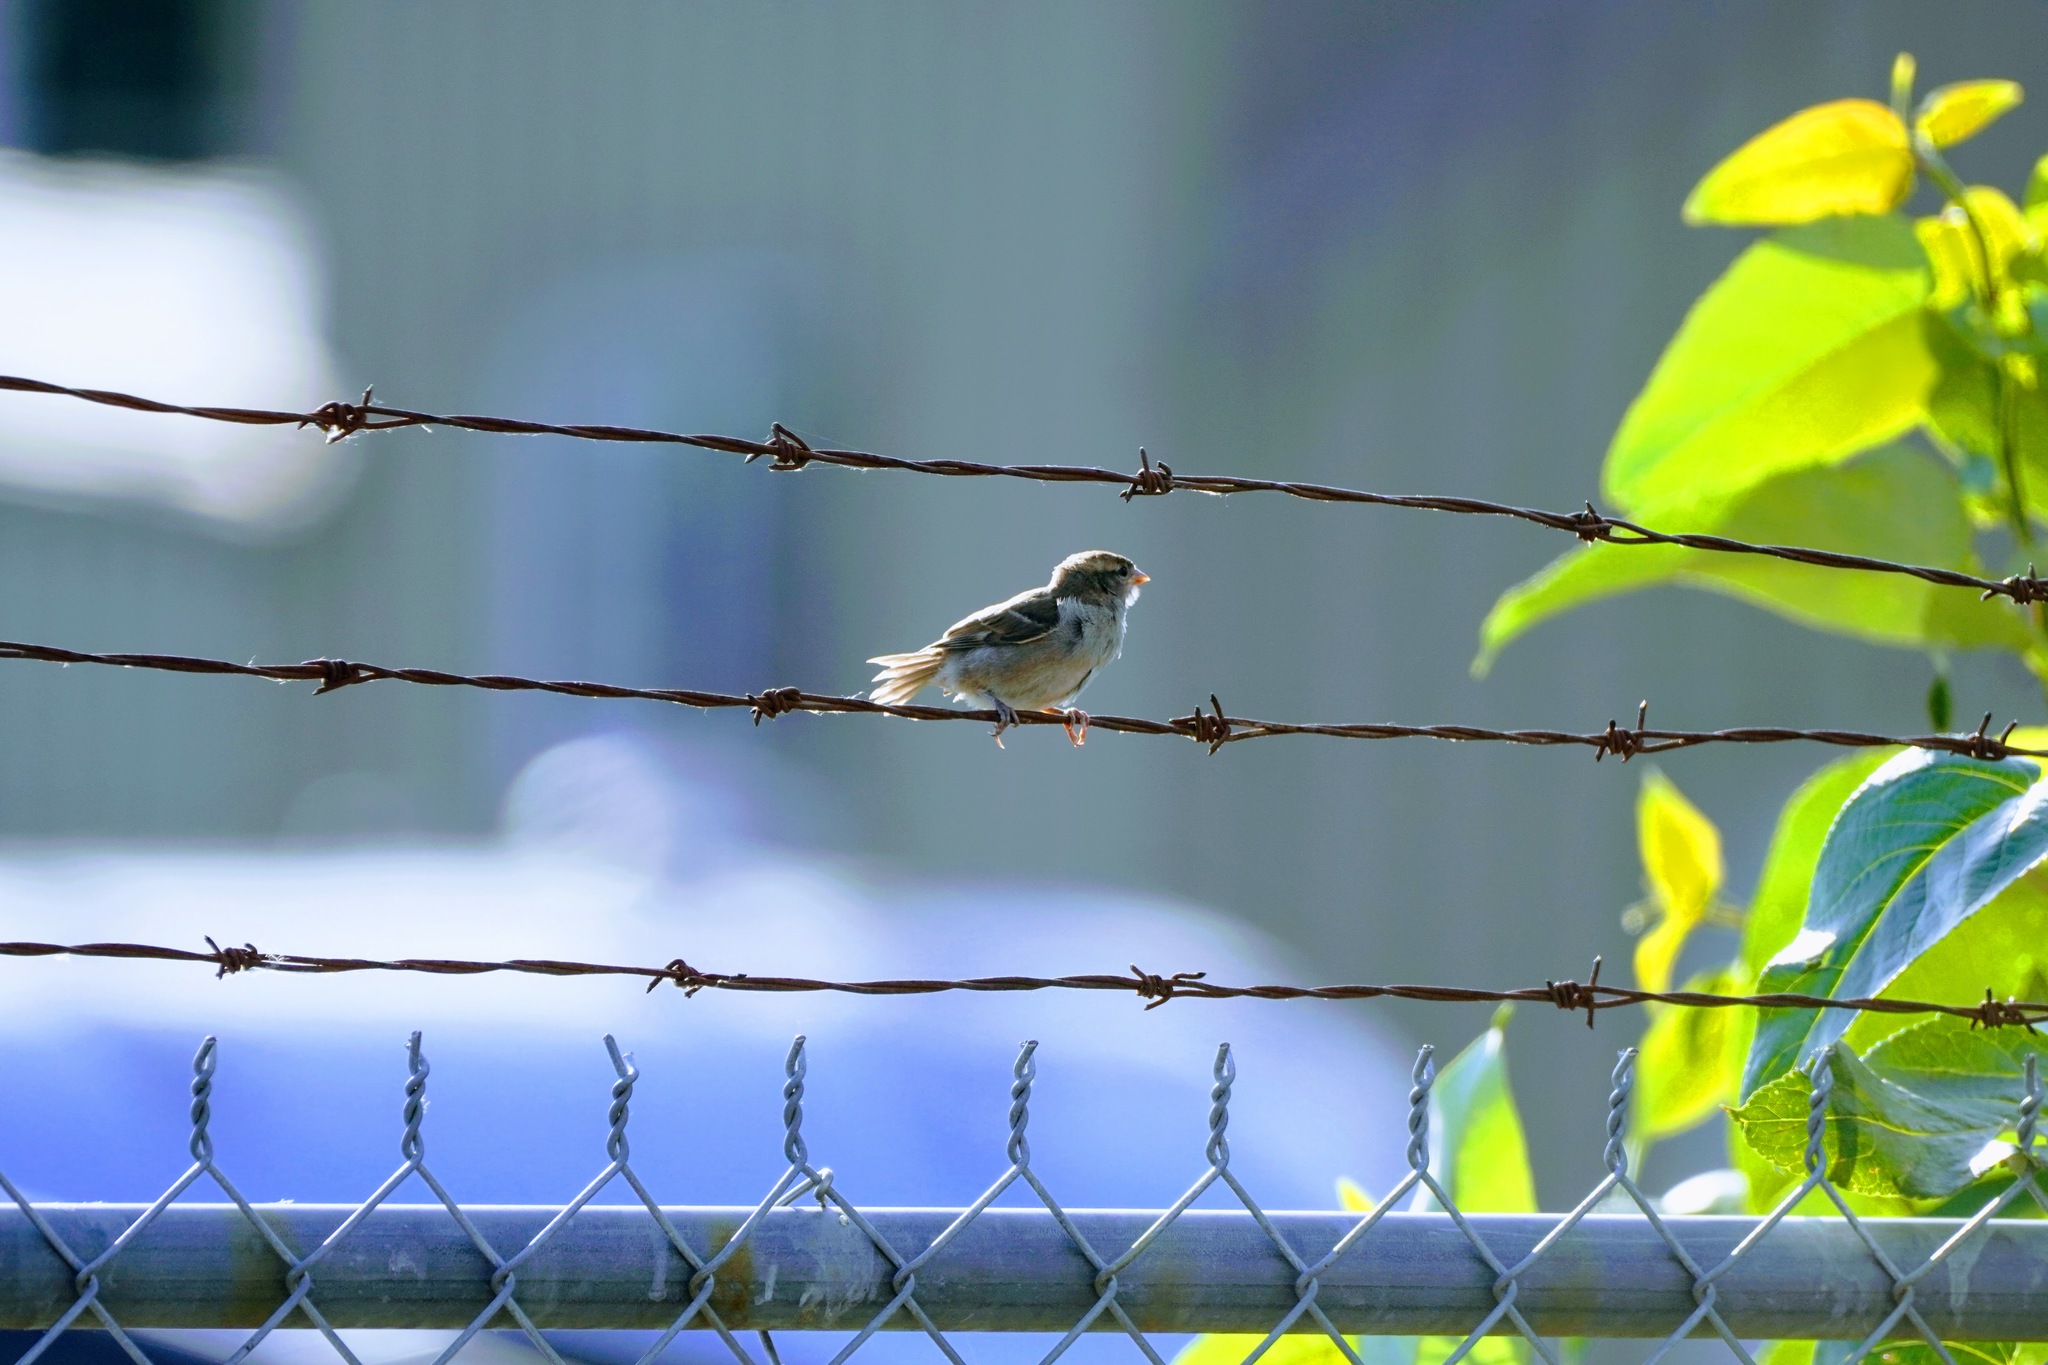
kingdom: Animalia
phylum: Chordata
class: Aves
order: Passeriformes
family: Passeridae
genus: Passer
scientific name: Passer domesticus
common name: House sparrow
